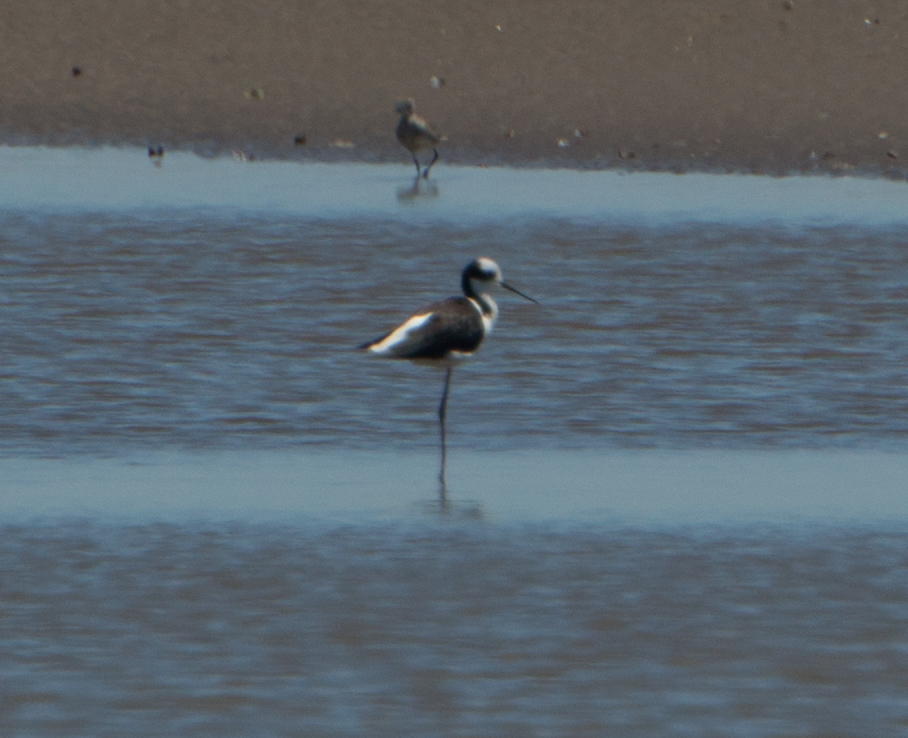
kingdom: Animalia
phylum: Chordata
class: Aves
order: Charadriiformes
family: Recurvirostridae
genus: Himantopus
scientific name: Himantopus mexicanus
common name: Black-necked stilt
